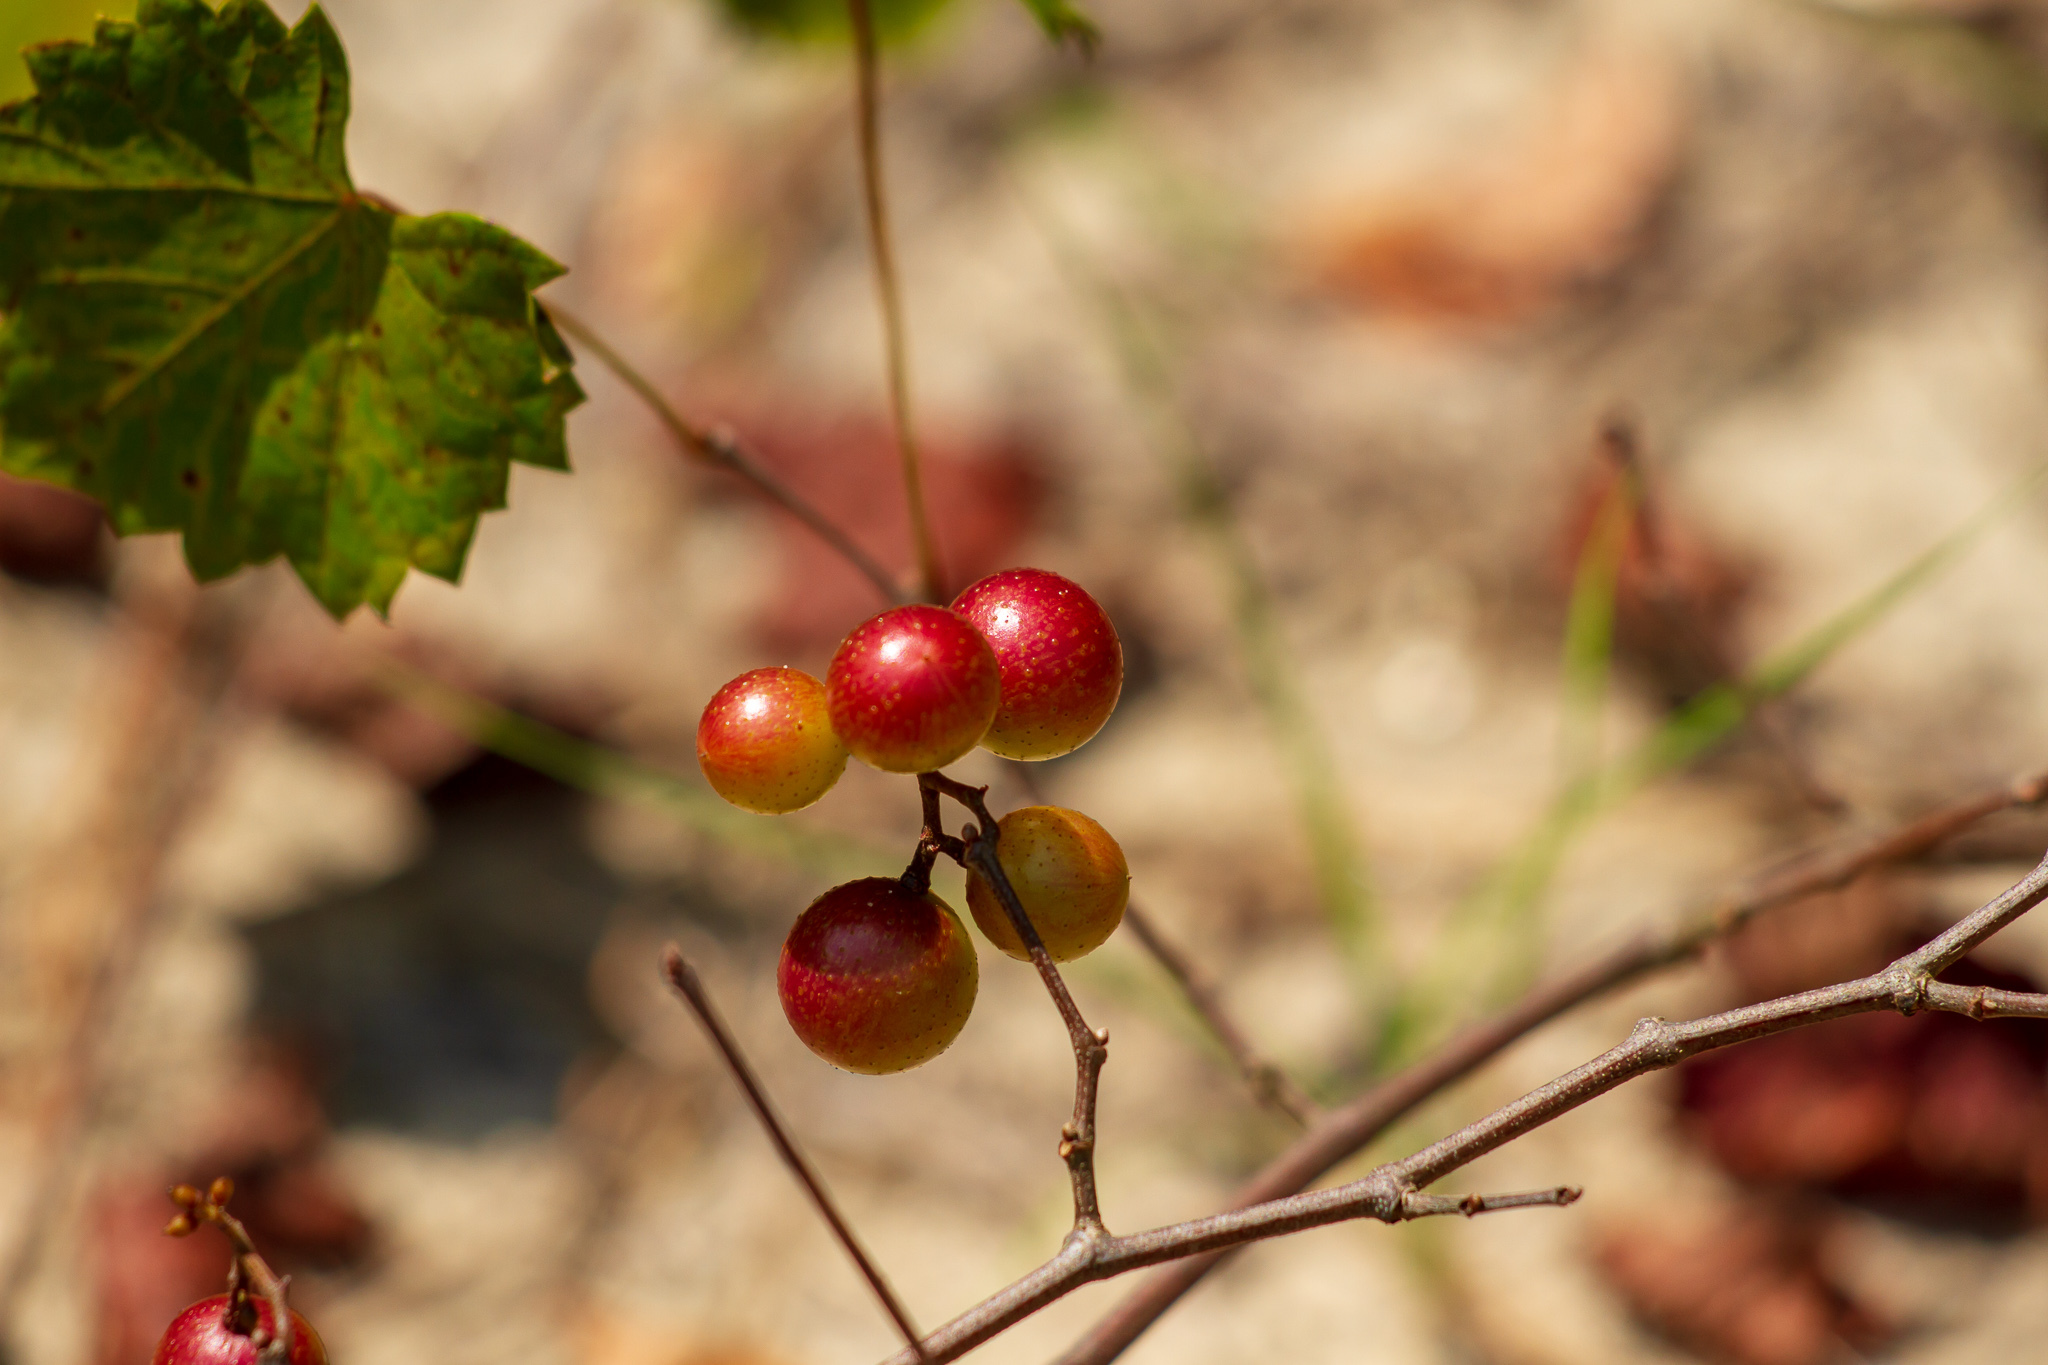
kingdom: Plantae
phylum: Tracheophyta
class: Magnoliopsida
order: Vitales
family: Vitaceae
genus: Vitis
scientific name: Vitis rotundifolia
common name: Muscadine grape
